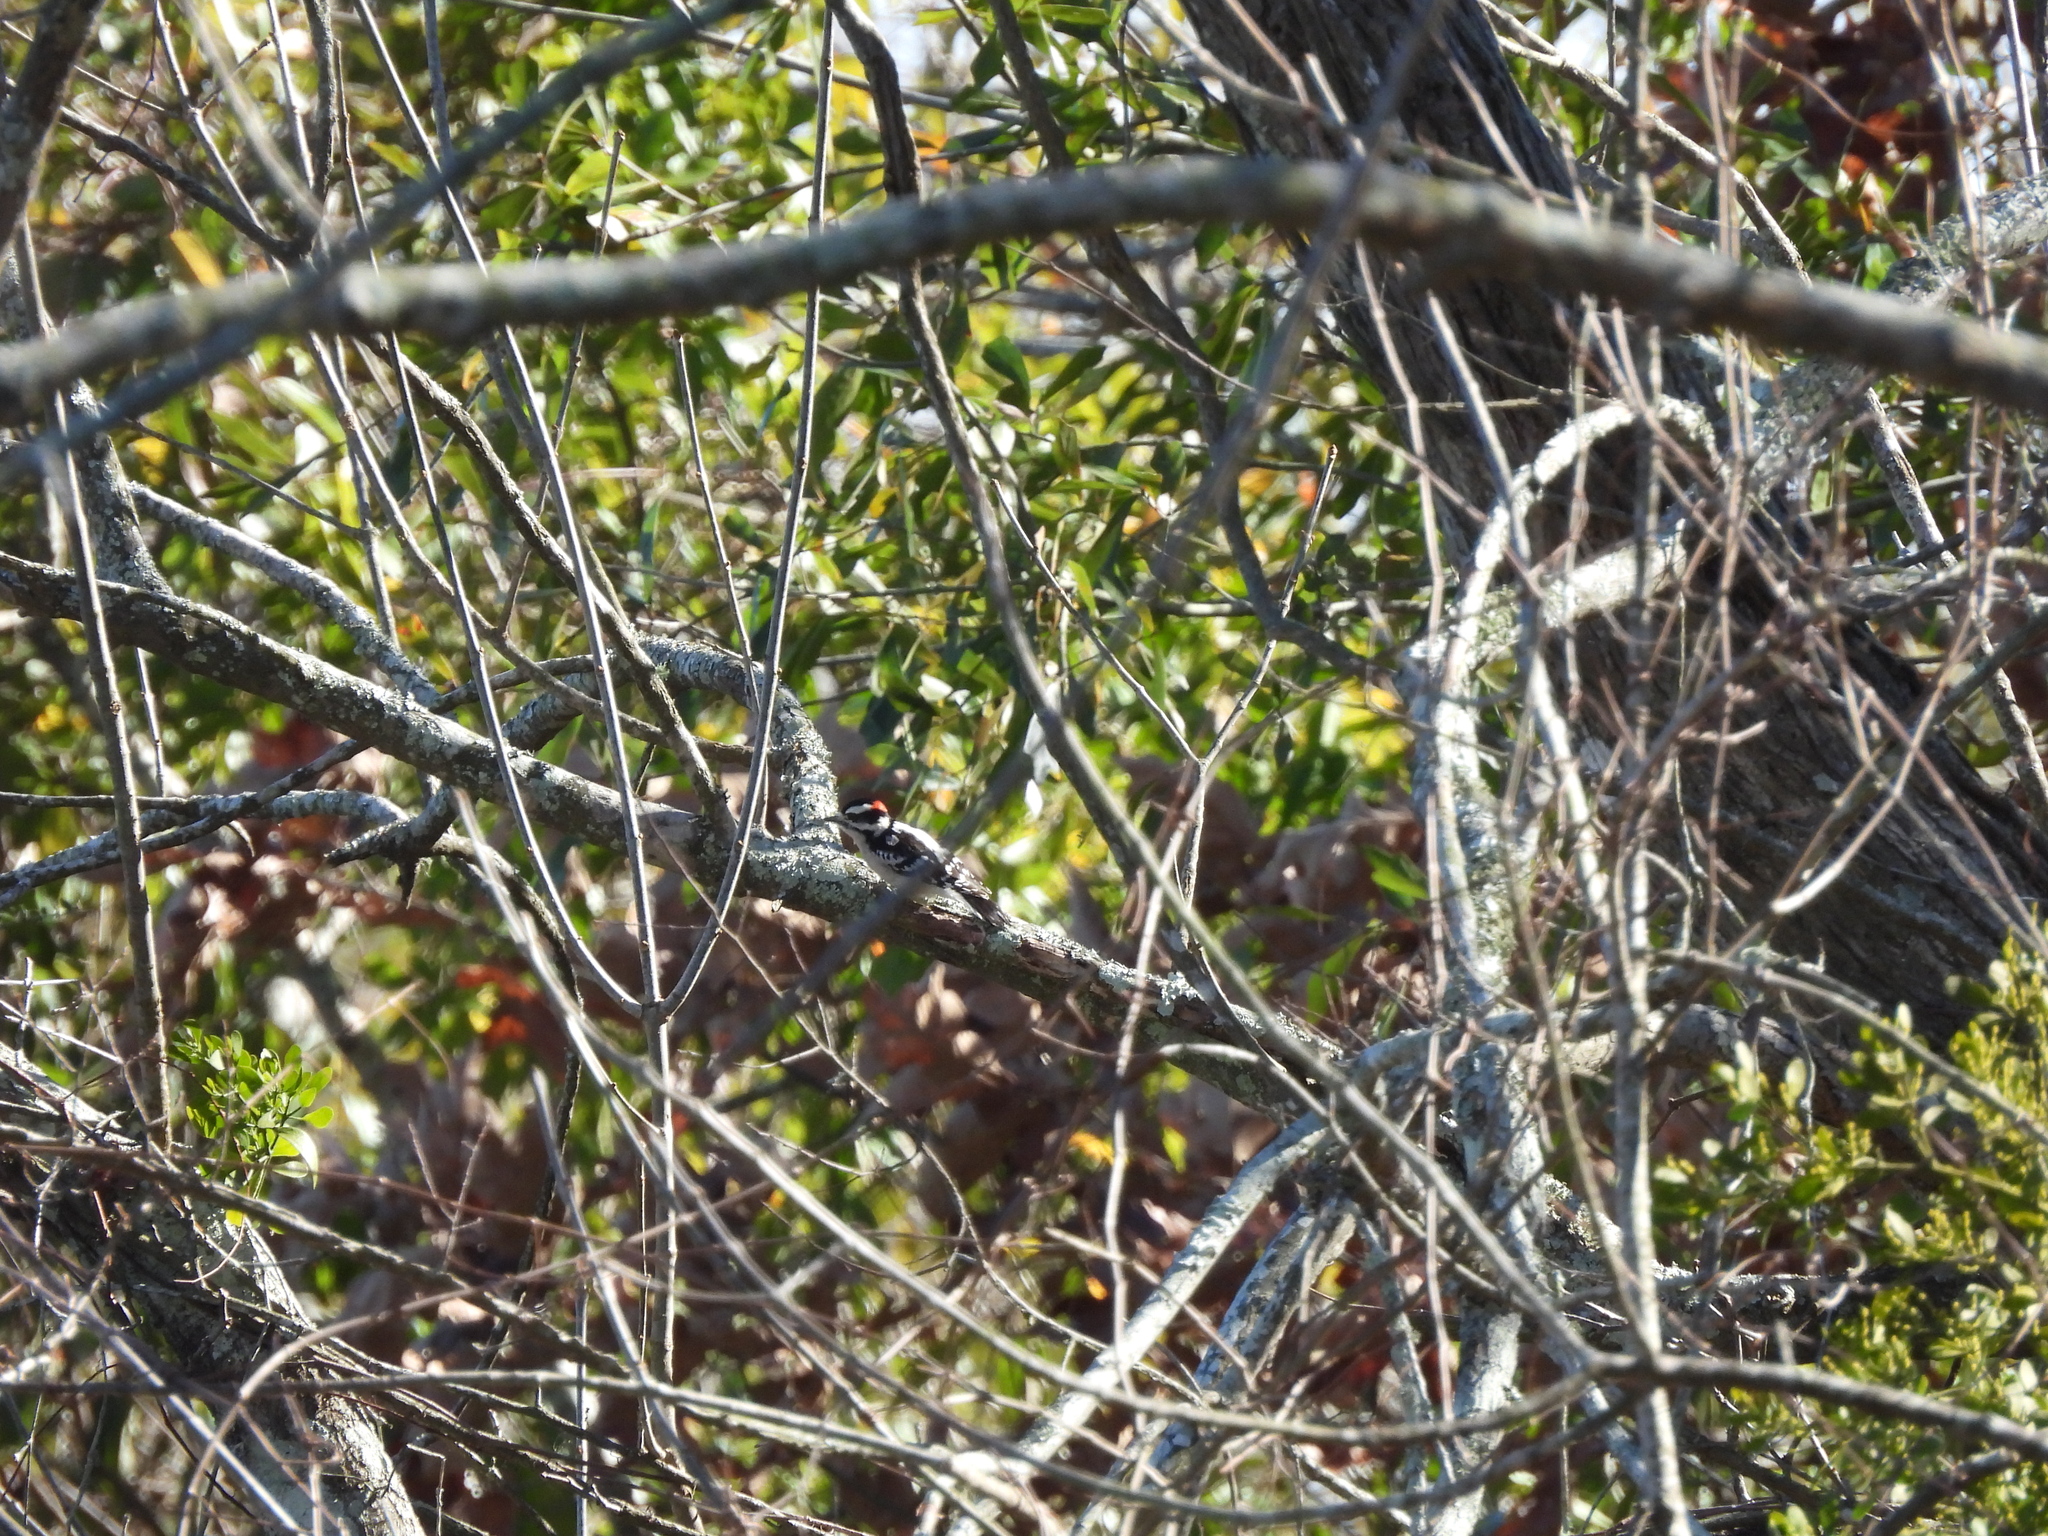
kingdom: Animalia
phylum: Chordata
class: Aves
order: Piciformes
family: Picidae
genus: Dryobates
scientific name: Dryobates pubescens
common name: Downy woodpecker
